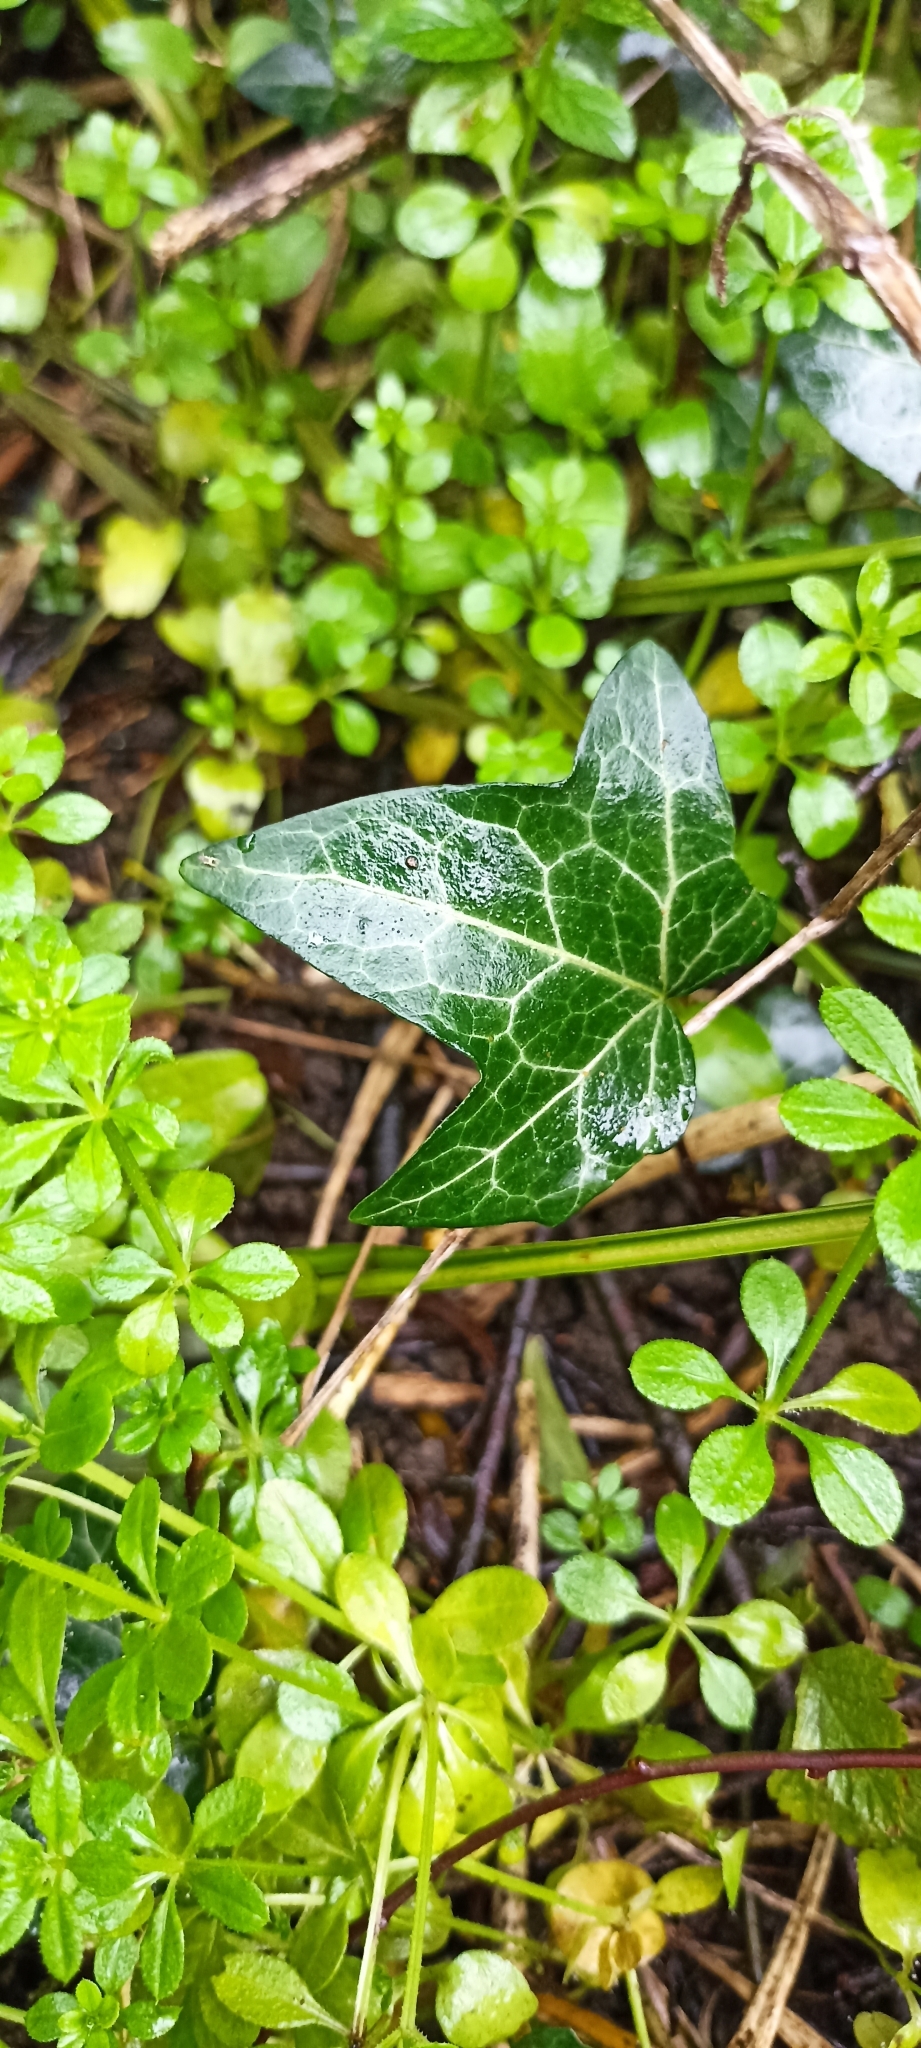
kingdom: Plantae
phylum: Tracheophyta
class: Magnoliopsida
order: Apiales
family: Araliaceae
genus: Hedera
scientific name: Hedera helix
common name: Ivy
